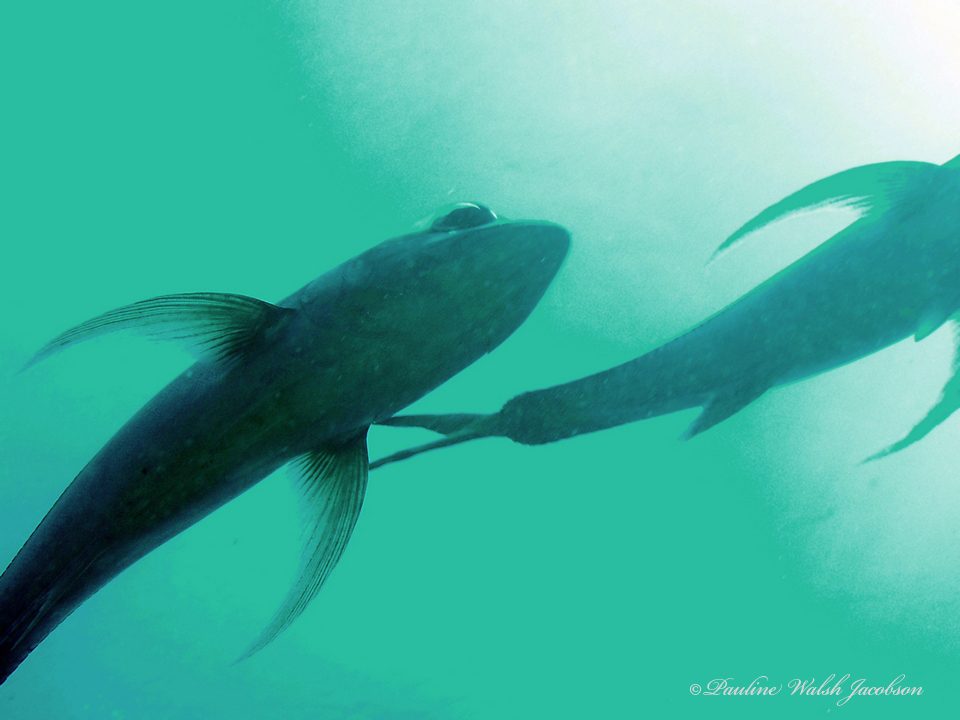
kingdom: Animalia
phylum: Chordata
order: Perciformes
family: Carangidae
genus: Caranx
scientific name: Caranx latus
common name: Horse eye jack
